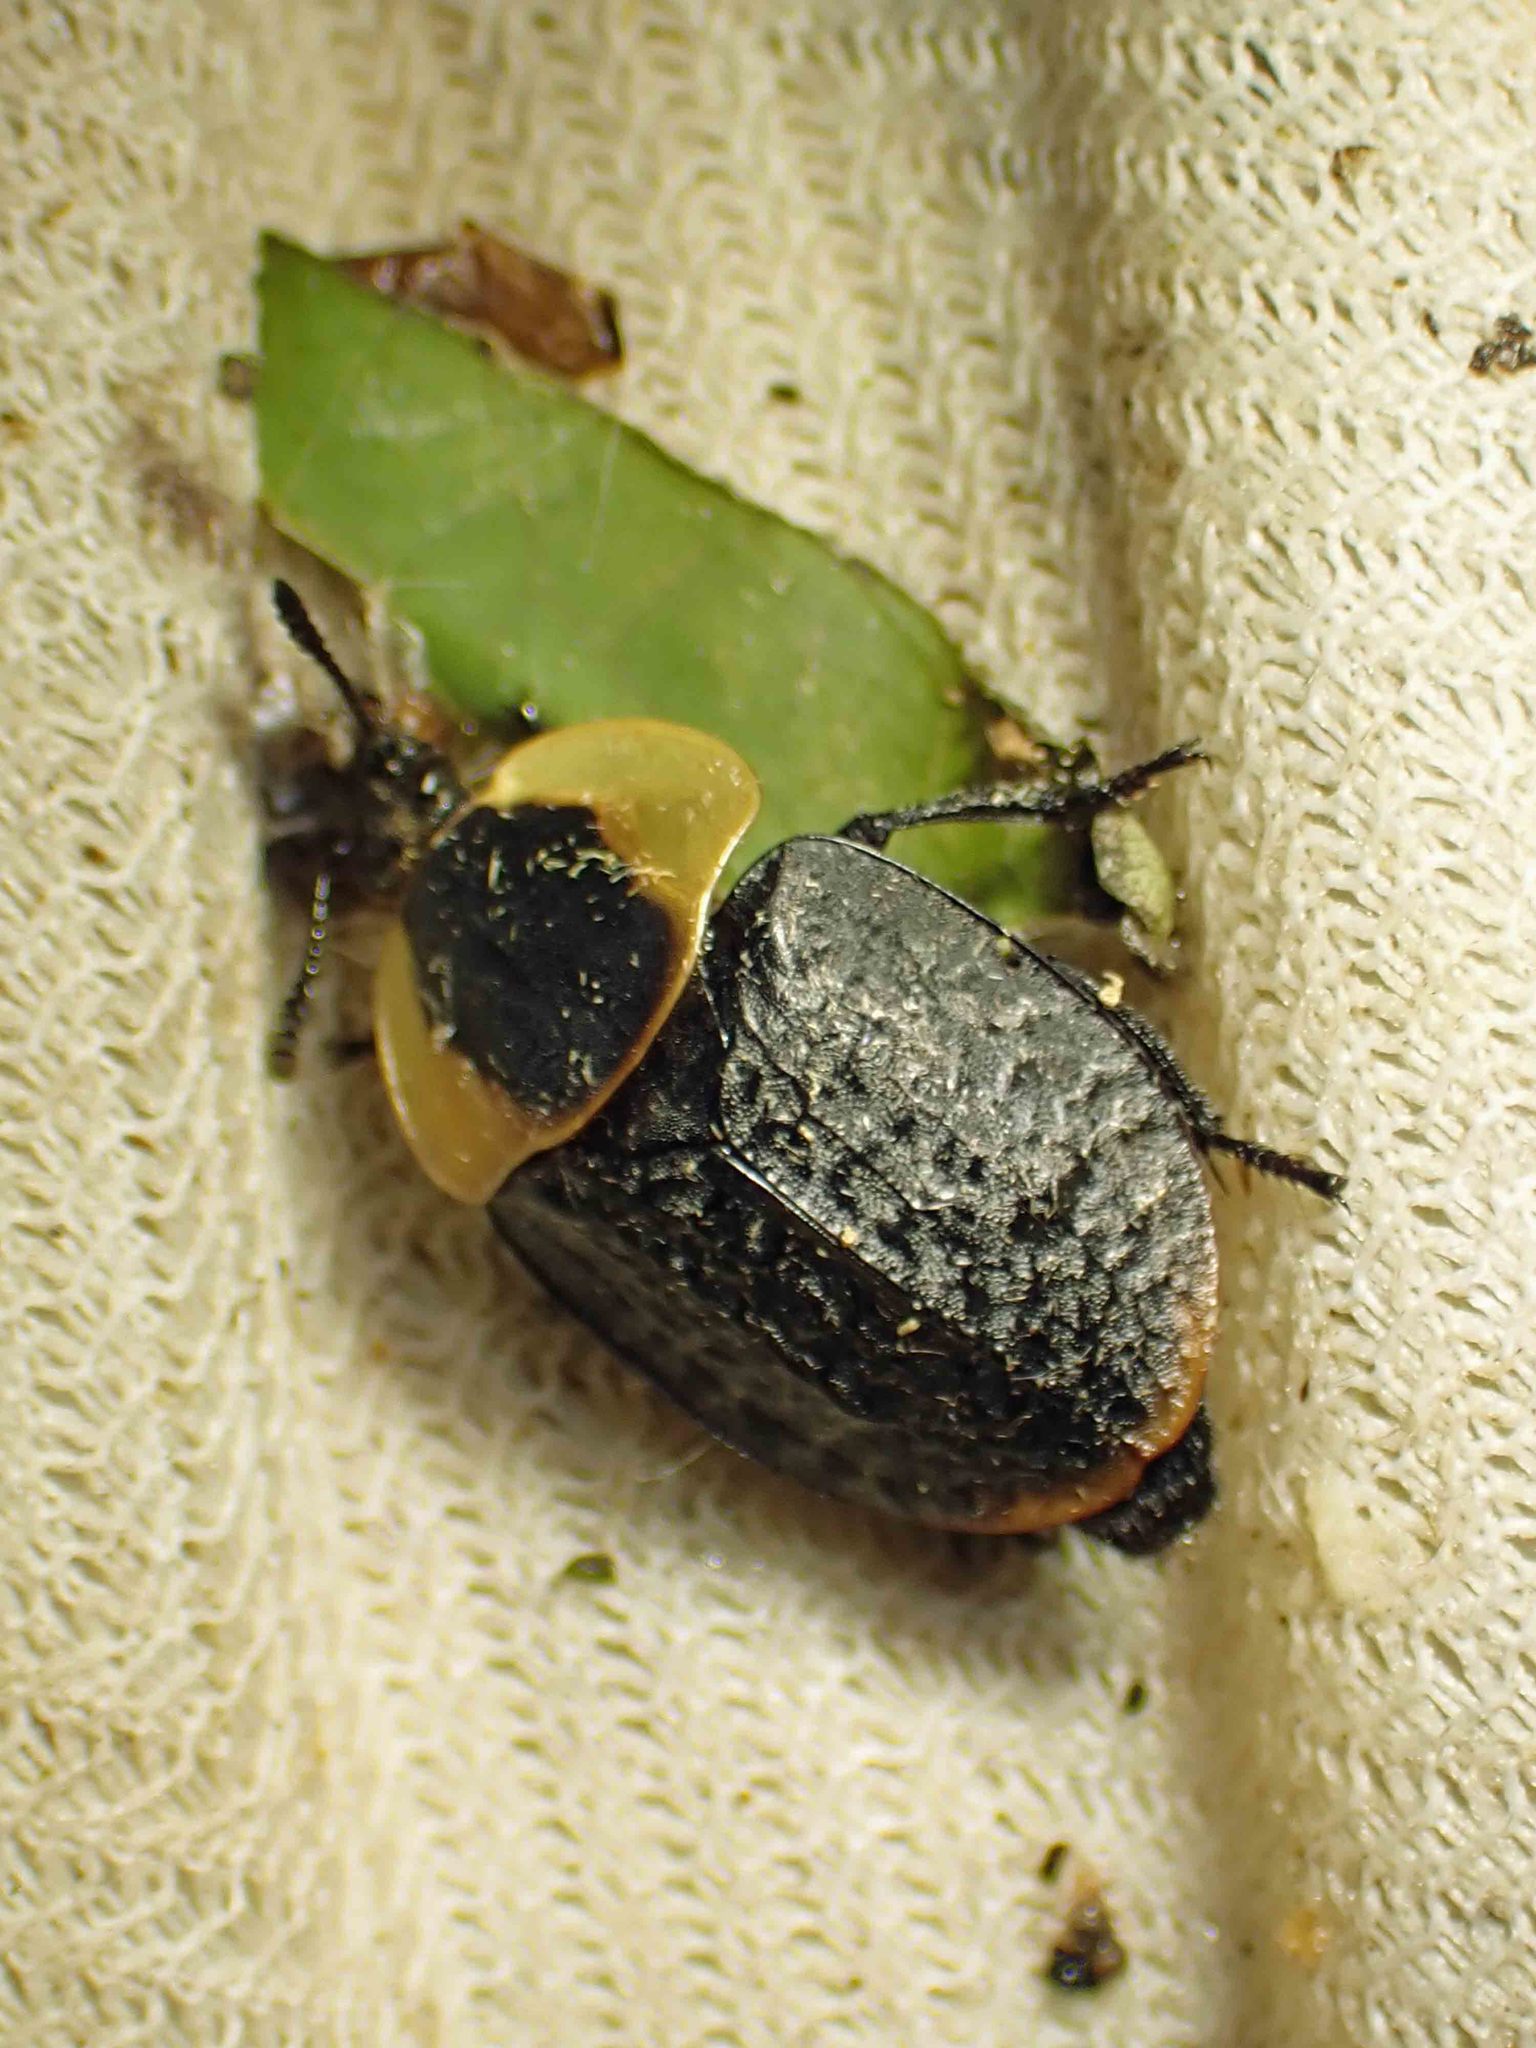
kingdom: Animalia
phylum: Arthropoda
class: Insecta
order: Coleoptera
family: Staphylinidae
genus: Necrophila
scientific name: Necrophila americana
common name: American carrion beetle
